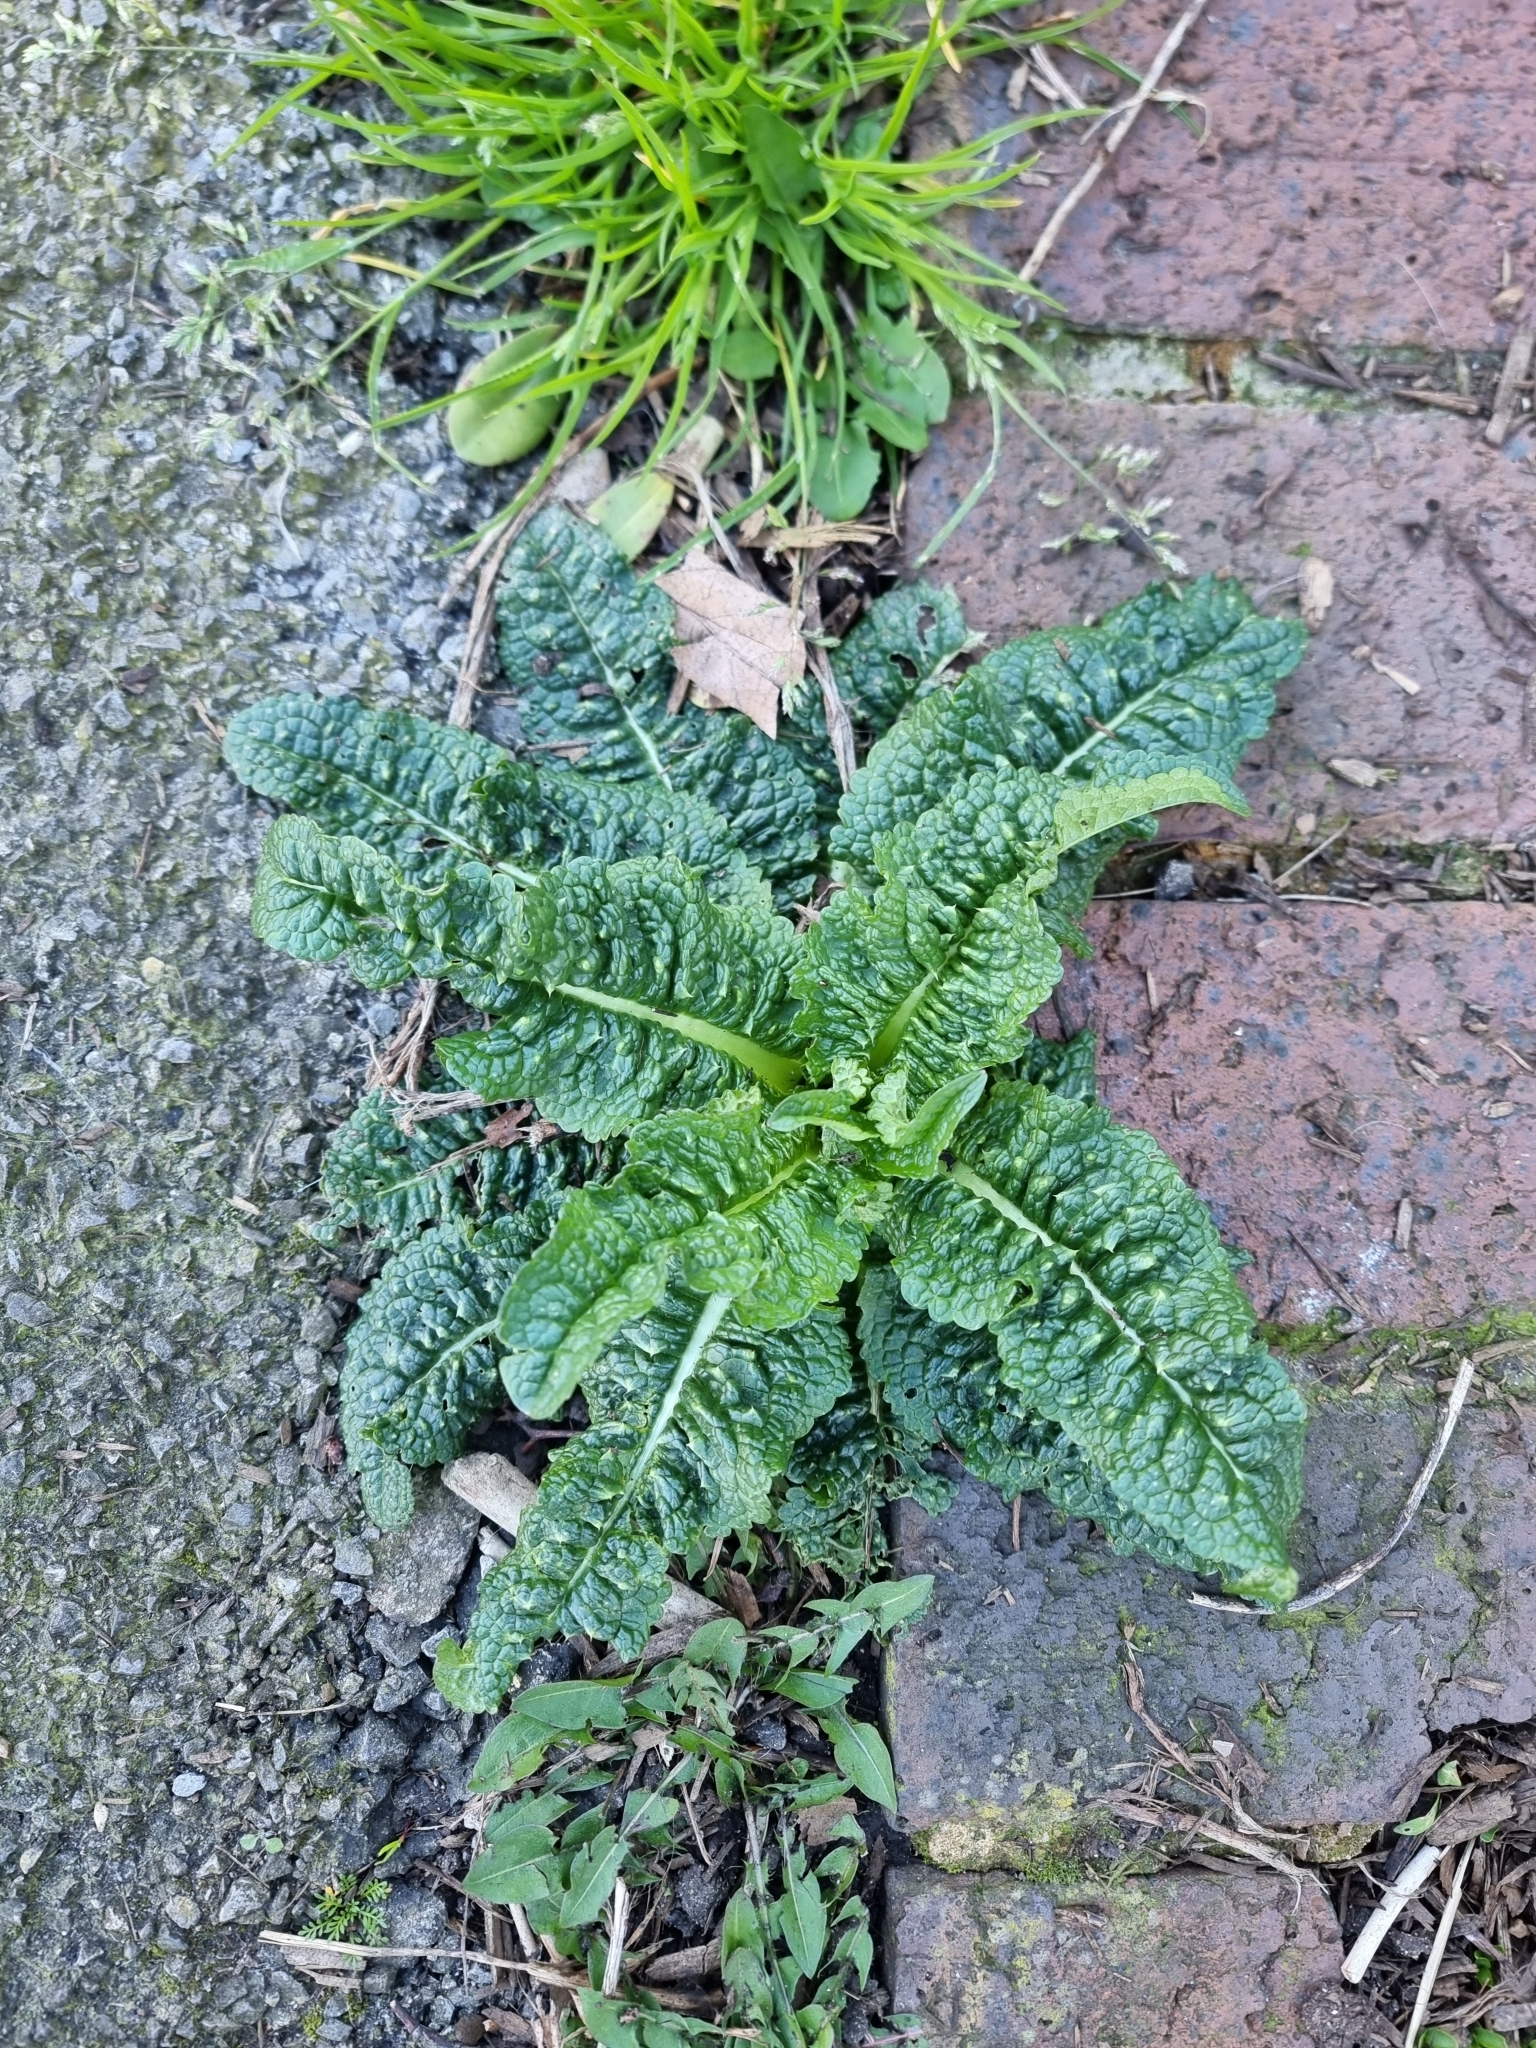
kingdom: Plantae
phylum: Tracheophyta
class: Magnoliopsida
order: Dipsacales
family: Caprifoliaceae
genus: Dipsacus
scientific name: Dipsacus fullonum
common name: Teasel
